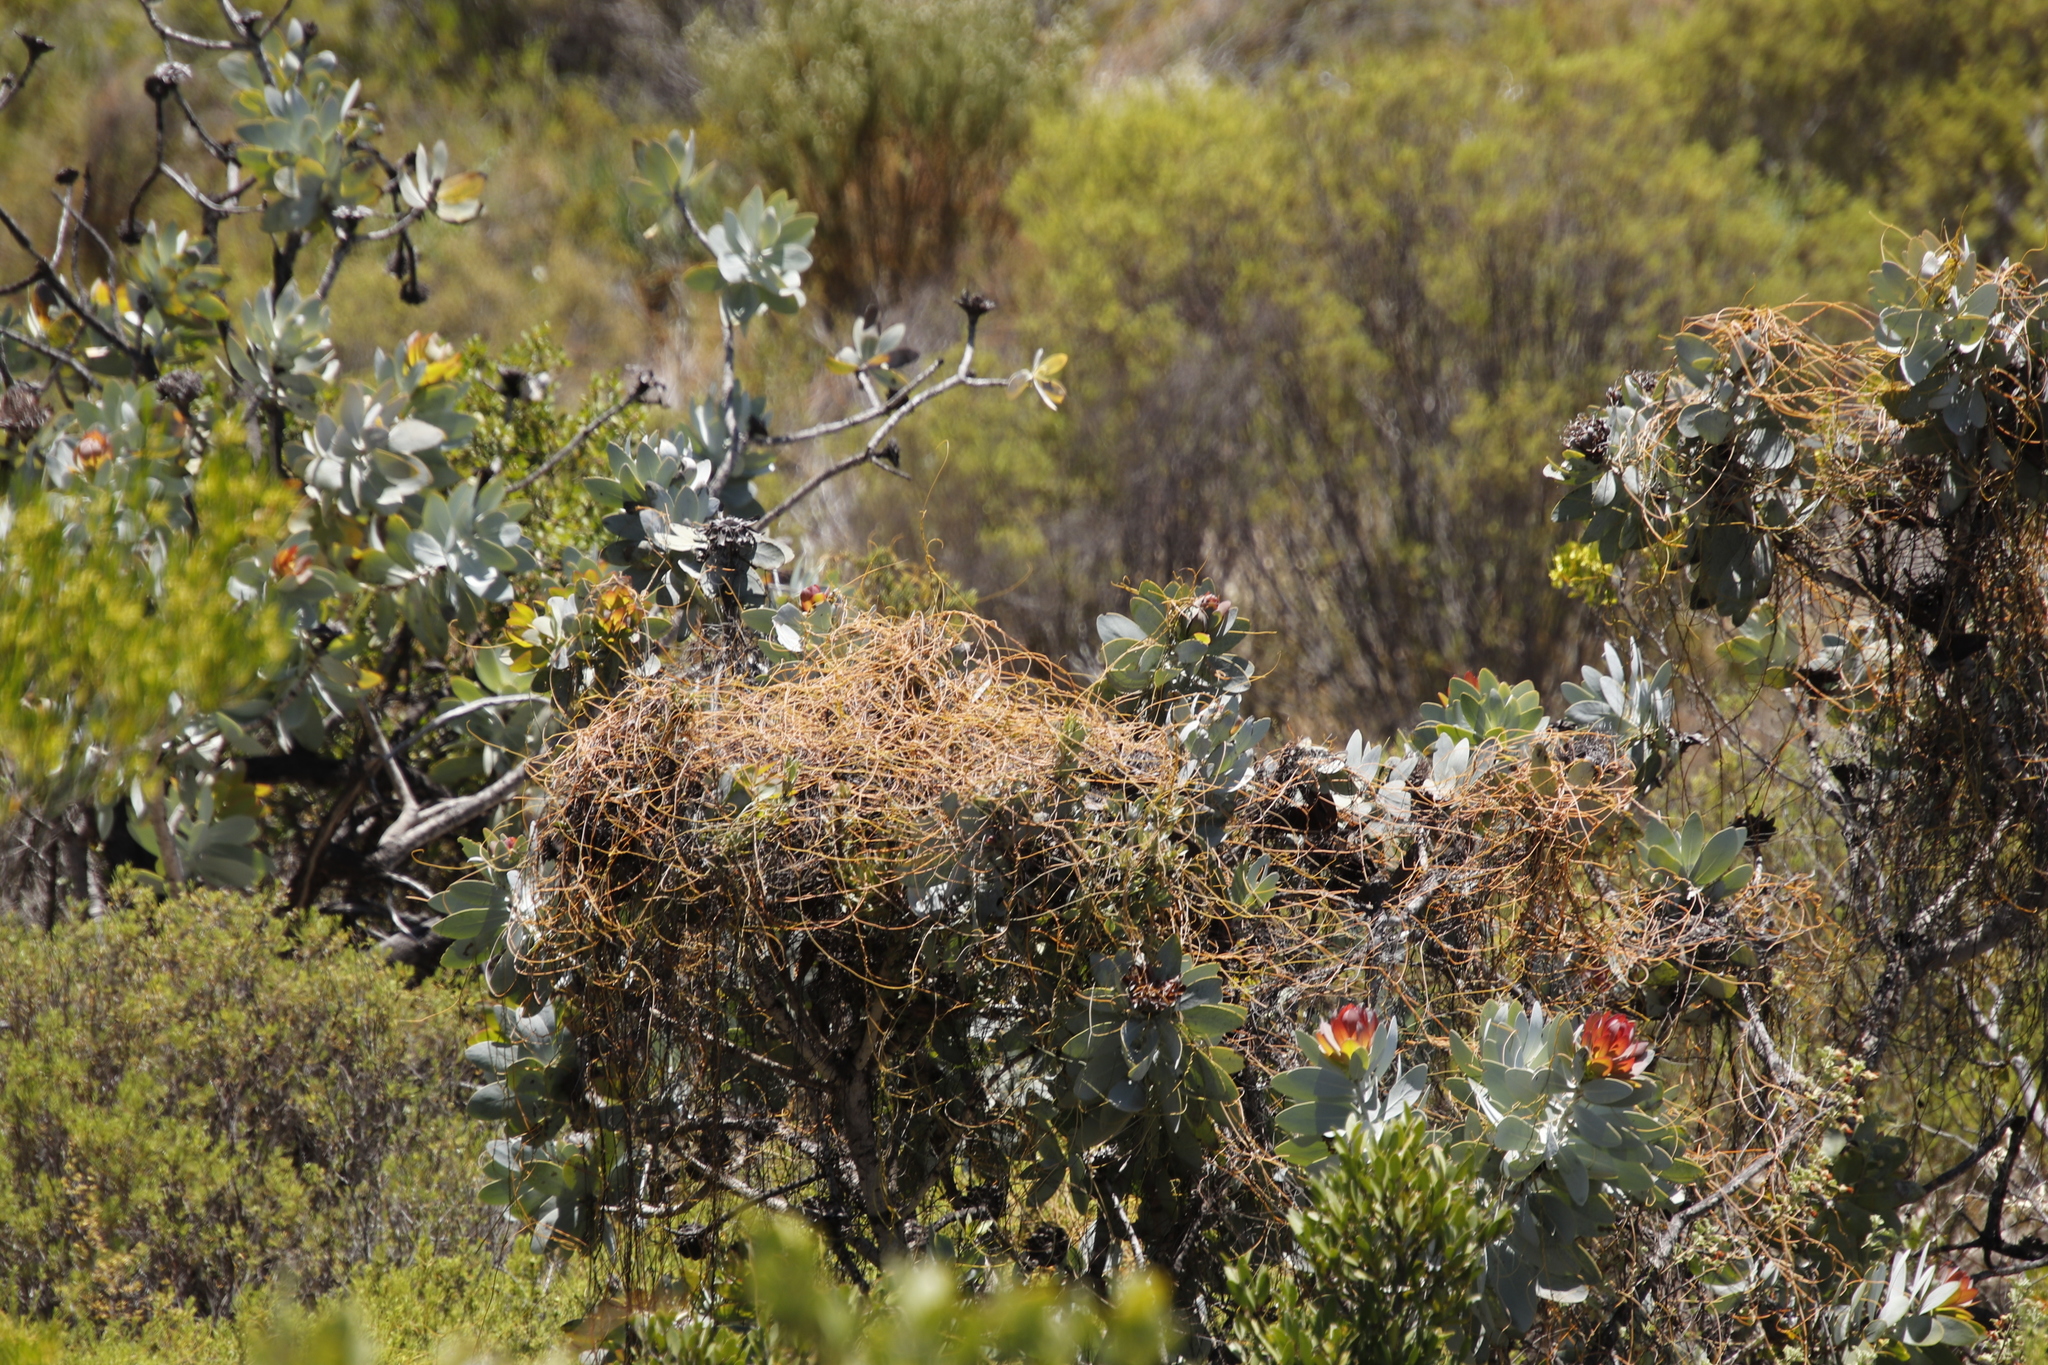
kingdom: Plantae
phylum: Tracheophyta
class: Magnoliopsida
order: Laurales
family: Lauraceae
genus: Cassytha
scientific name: Cassytha ciliolata
